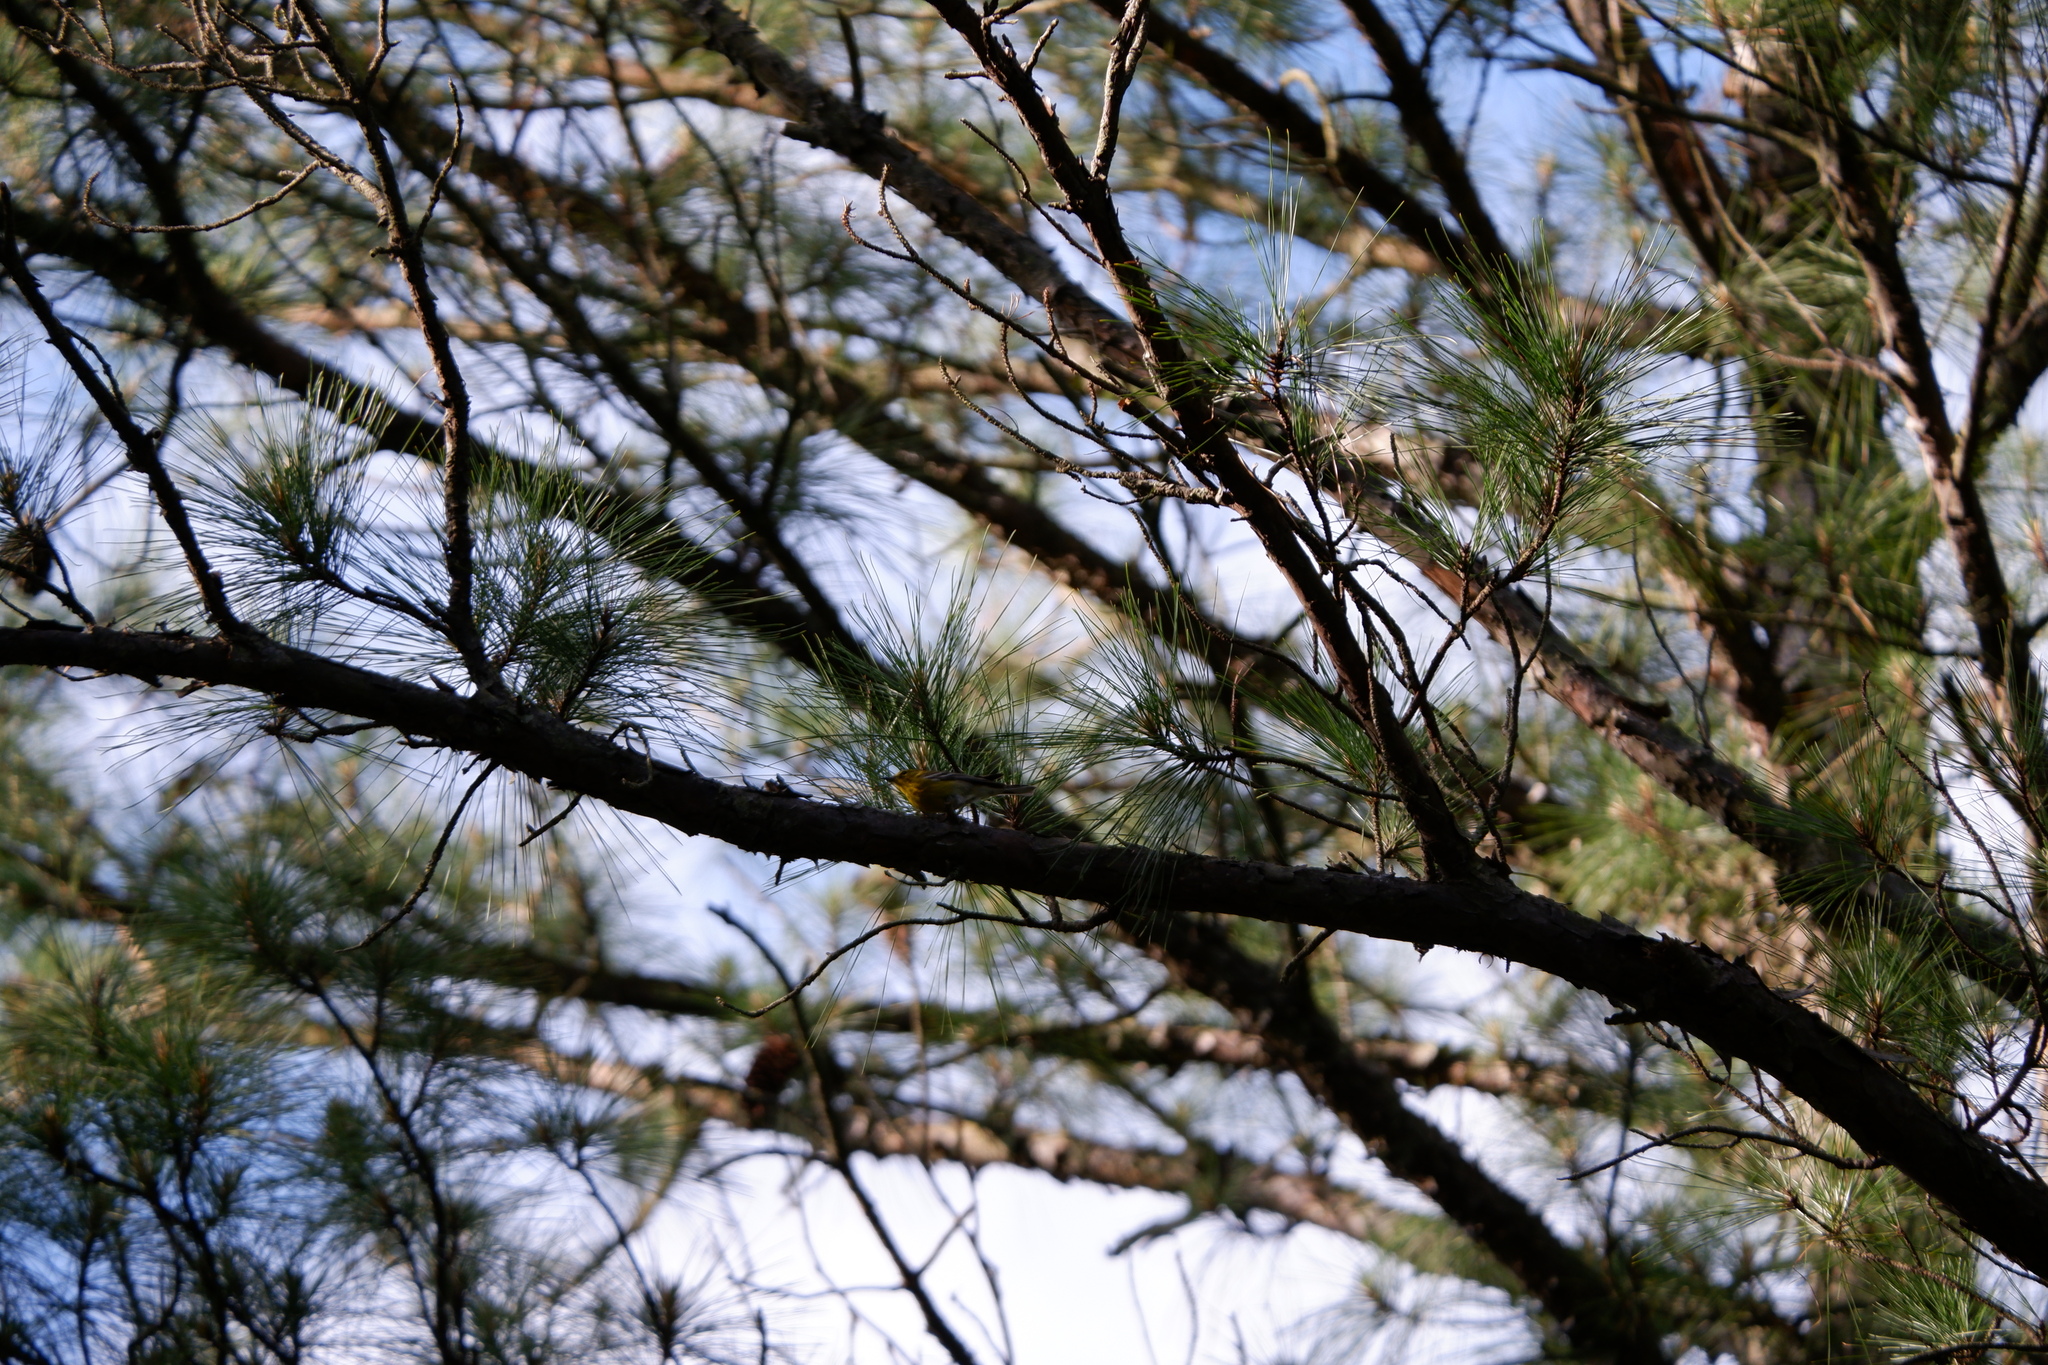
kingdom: Animalia
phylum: Chordata
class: Aves
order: Passeriformes
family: Parulidae
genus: Setophaga
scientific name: Setophaga pinus
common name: Pine warbler
